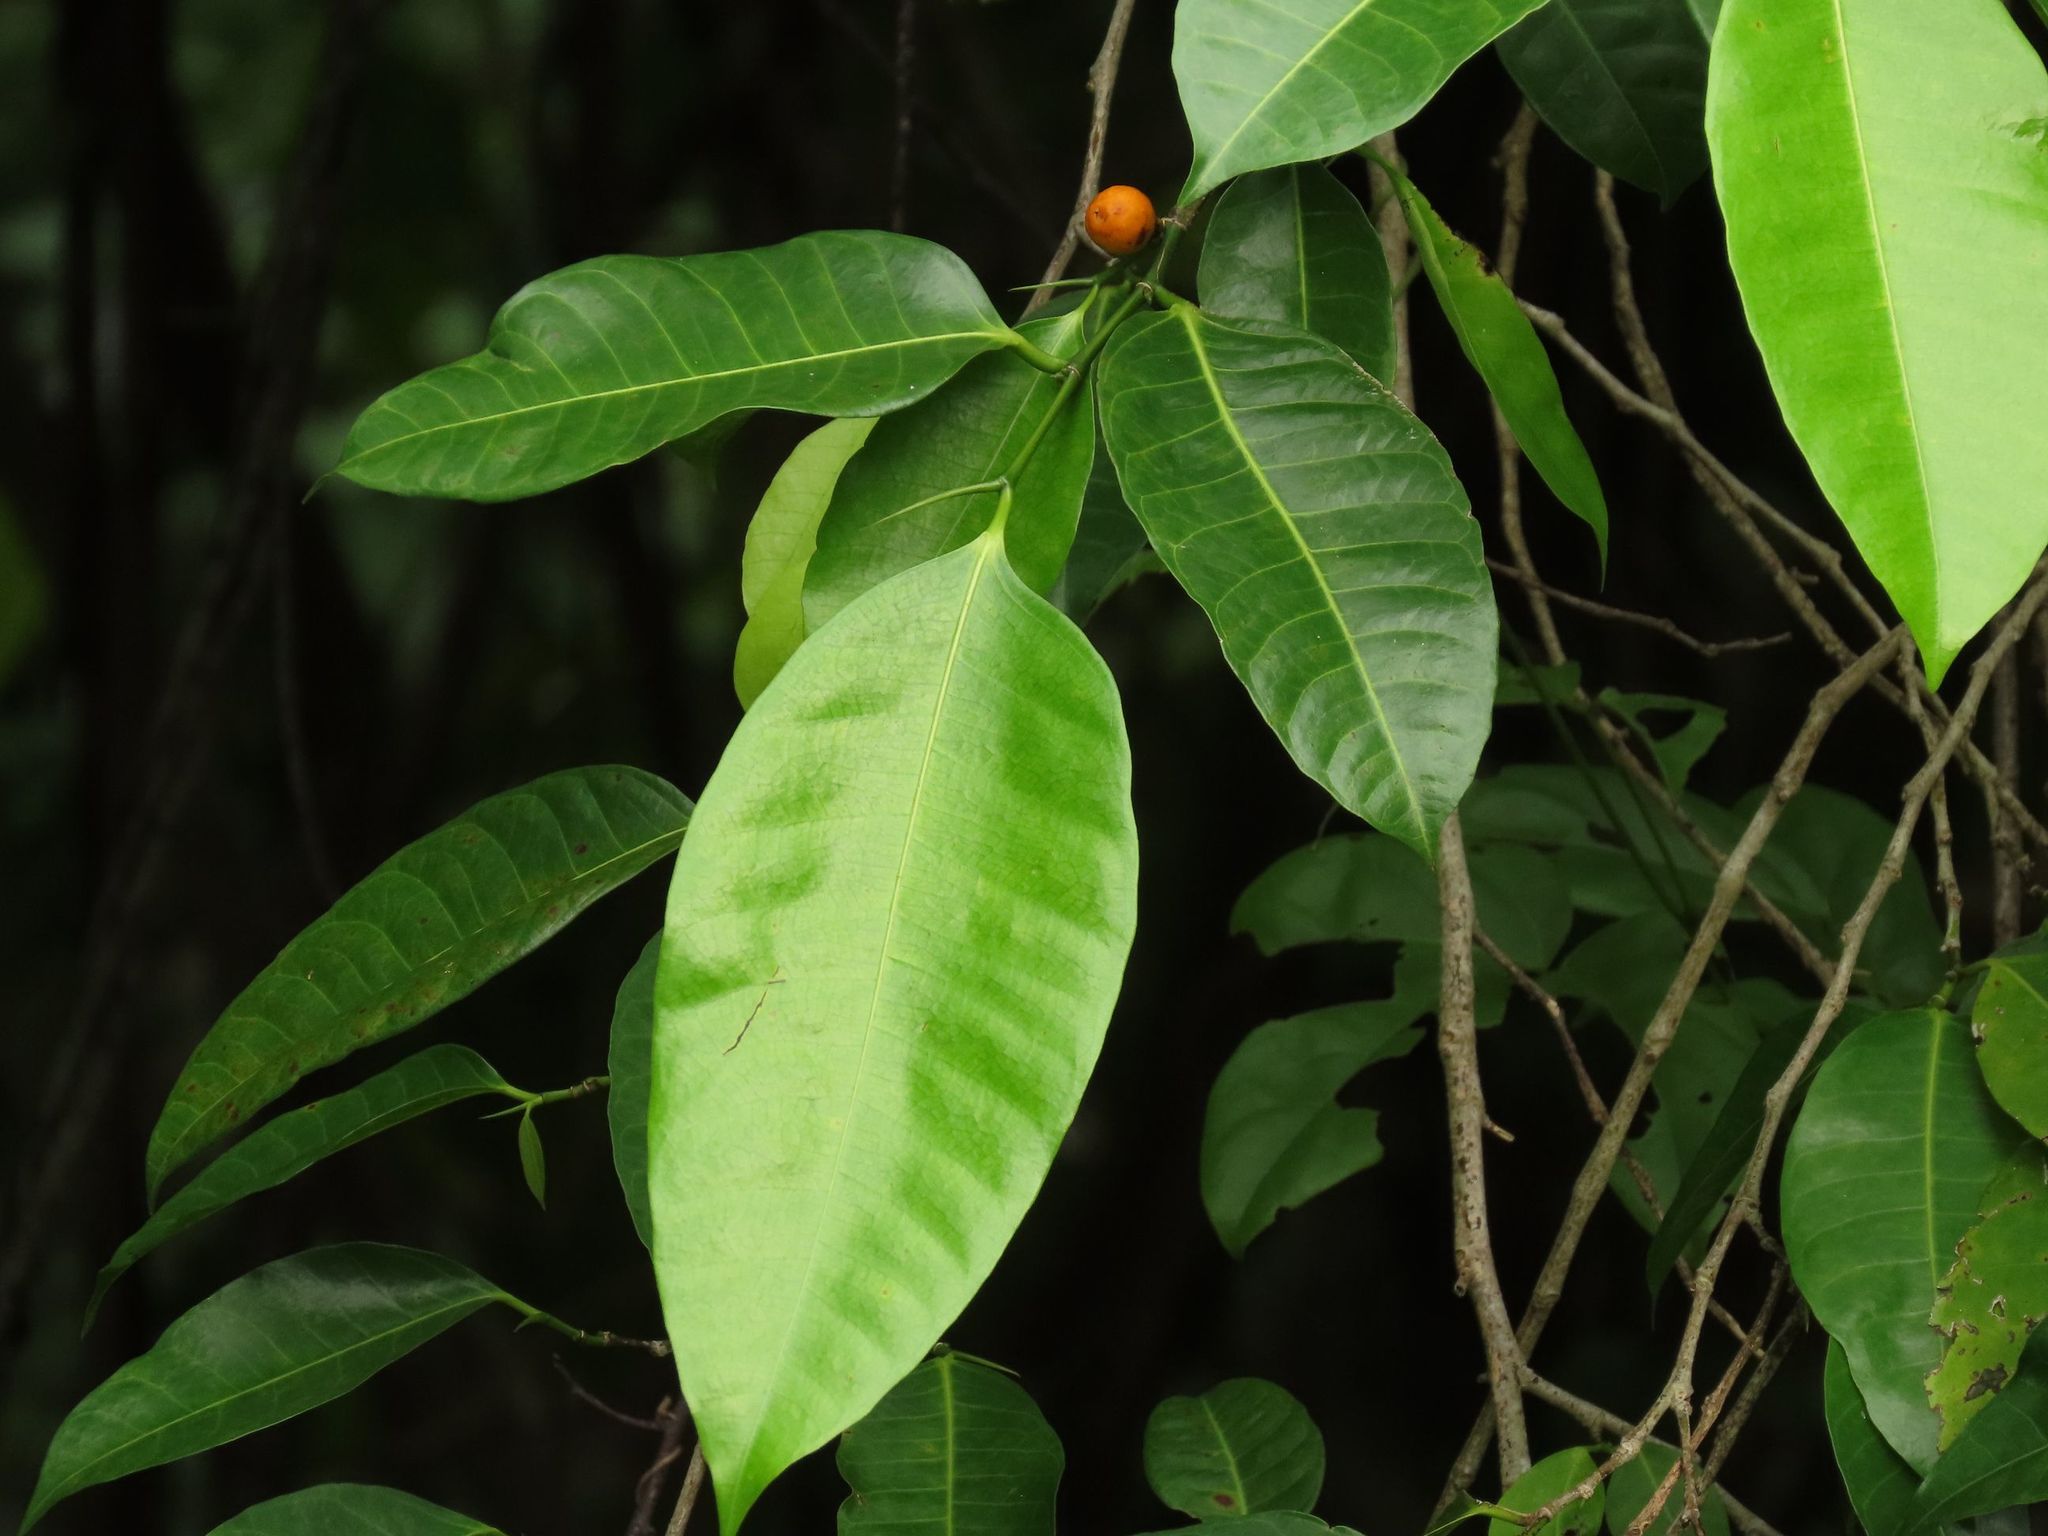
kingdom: Plantae
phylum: Tracheophyta
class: Magnoliopsida
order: Rosales
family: Moraceae
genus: Ficus
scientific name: Ficus virgata
